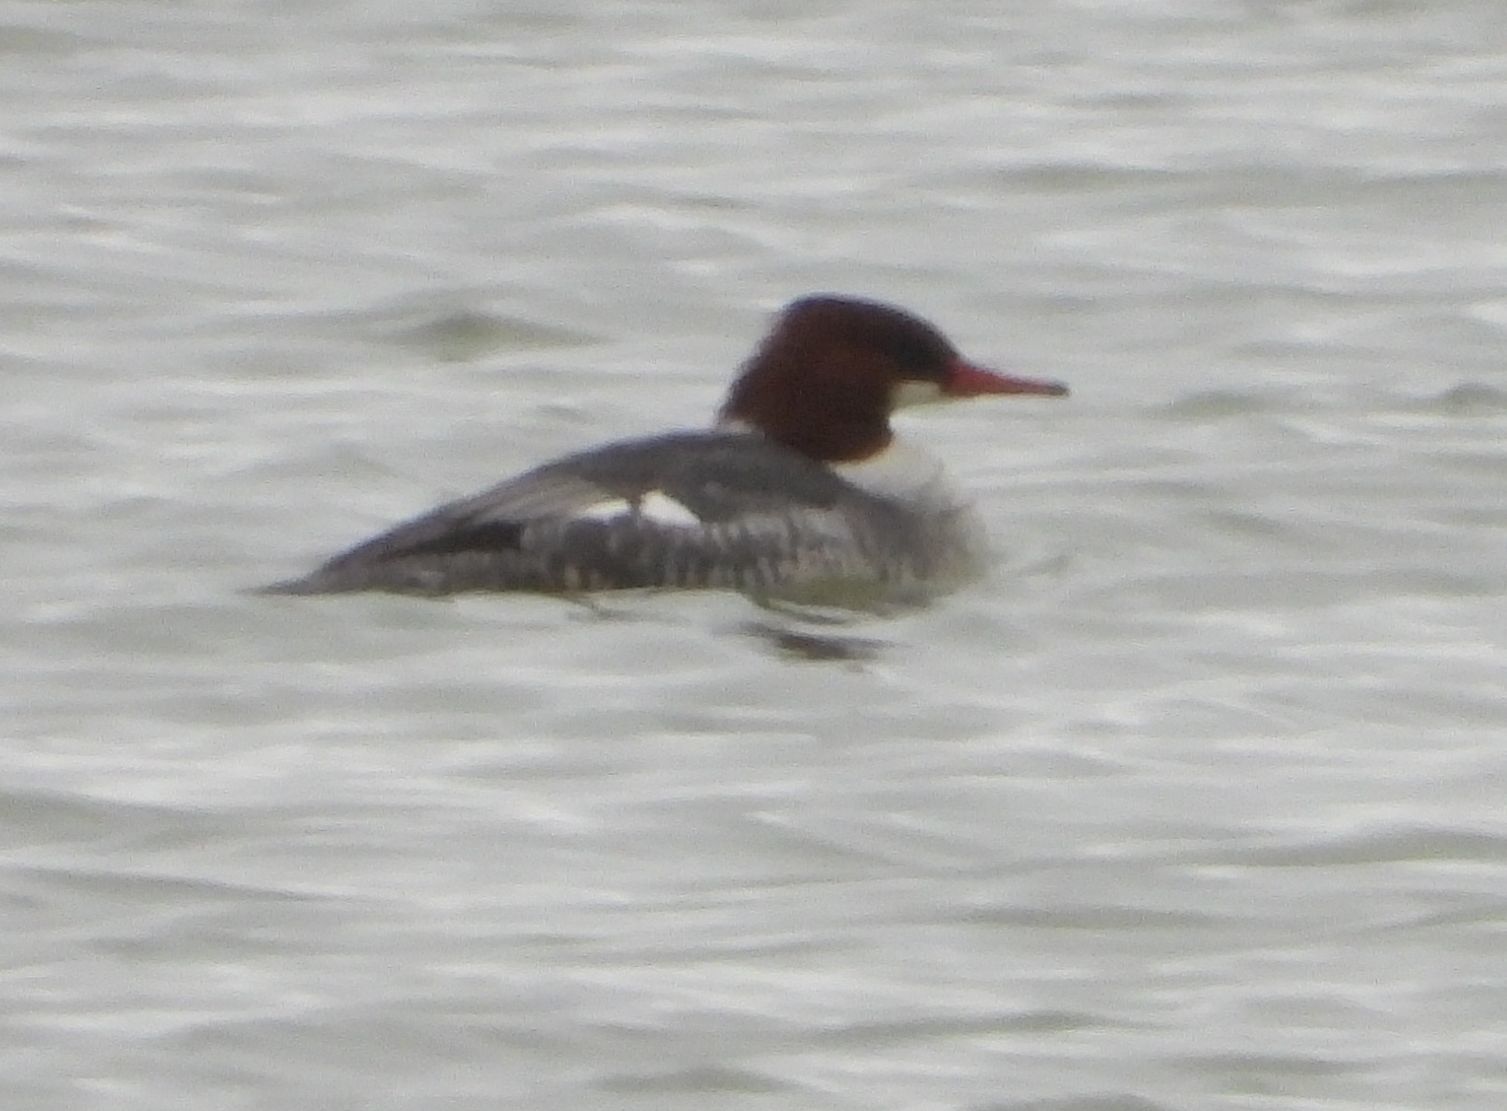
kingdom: Animalia
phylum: Chordata
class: Aves
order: Anseriformes
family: Anatidae
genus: Mergus
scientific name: Mergus merganser
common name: Common merganser
